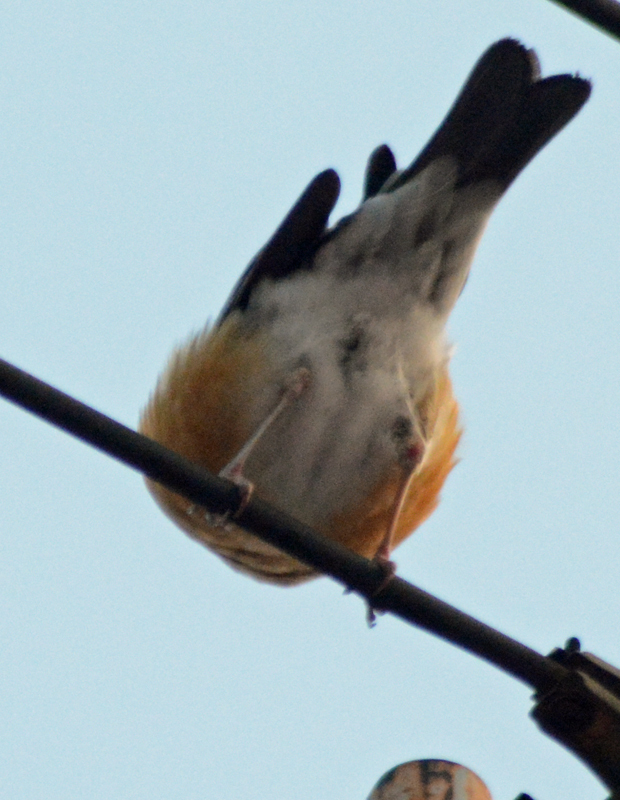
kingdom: Animalia
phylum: Chordata
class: Aves
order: Passeriformes
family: Turdidae
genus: Turdus
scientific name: Turdus rufopalliatus
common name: Rufous-backed robin
